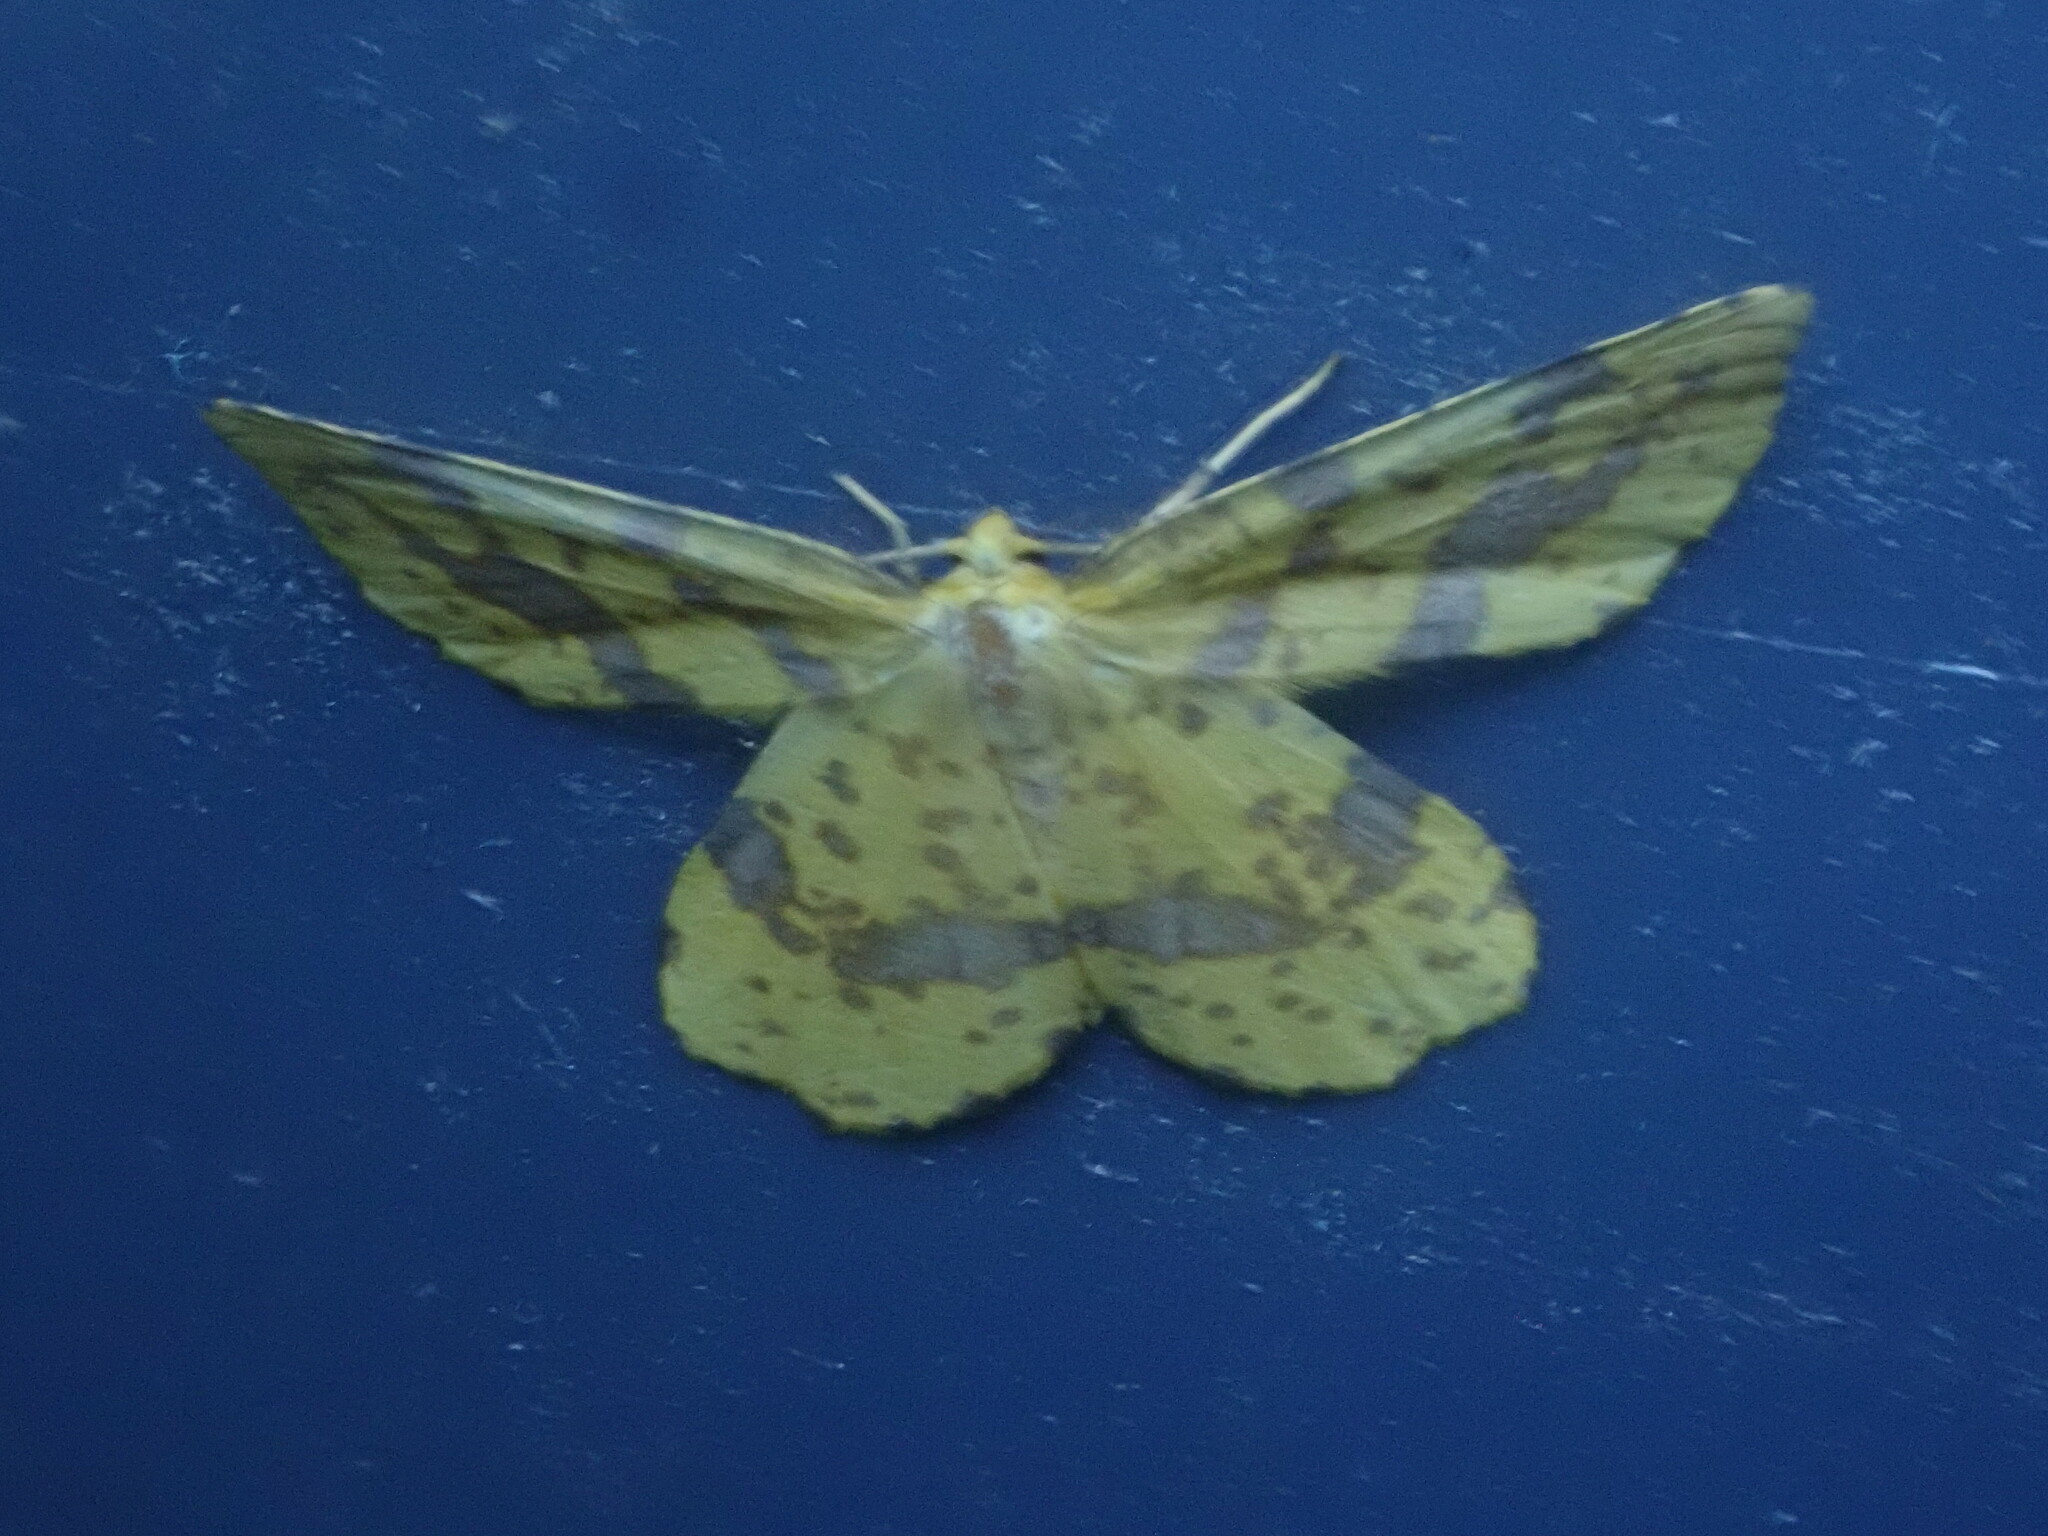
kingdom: Animalia
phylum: Arthropoda
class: Insecta
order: Lepidoptera
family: Geometridae
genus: Xanthotype
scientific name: Xanthotype
